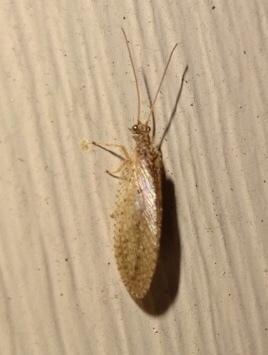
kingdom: Animalia
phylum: Arthropoda
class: Insecta
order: Neuroptera
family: Hemerobiidae
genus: Micromus
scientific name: Micromus subanticus
